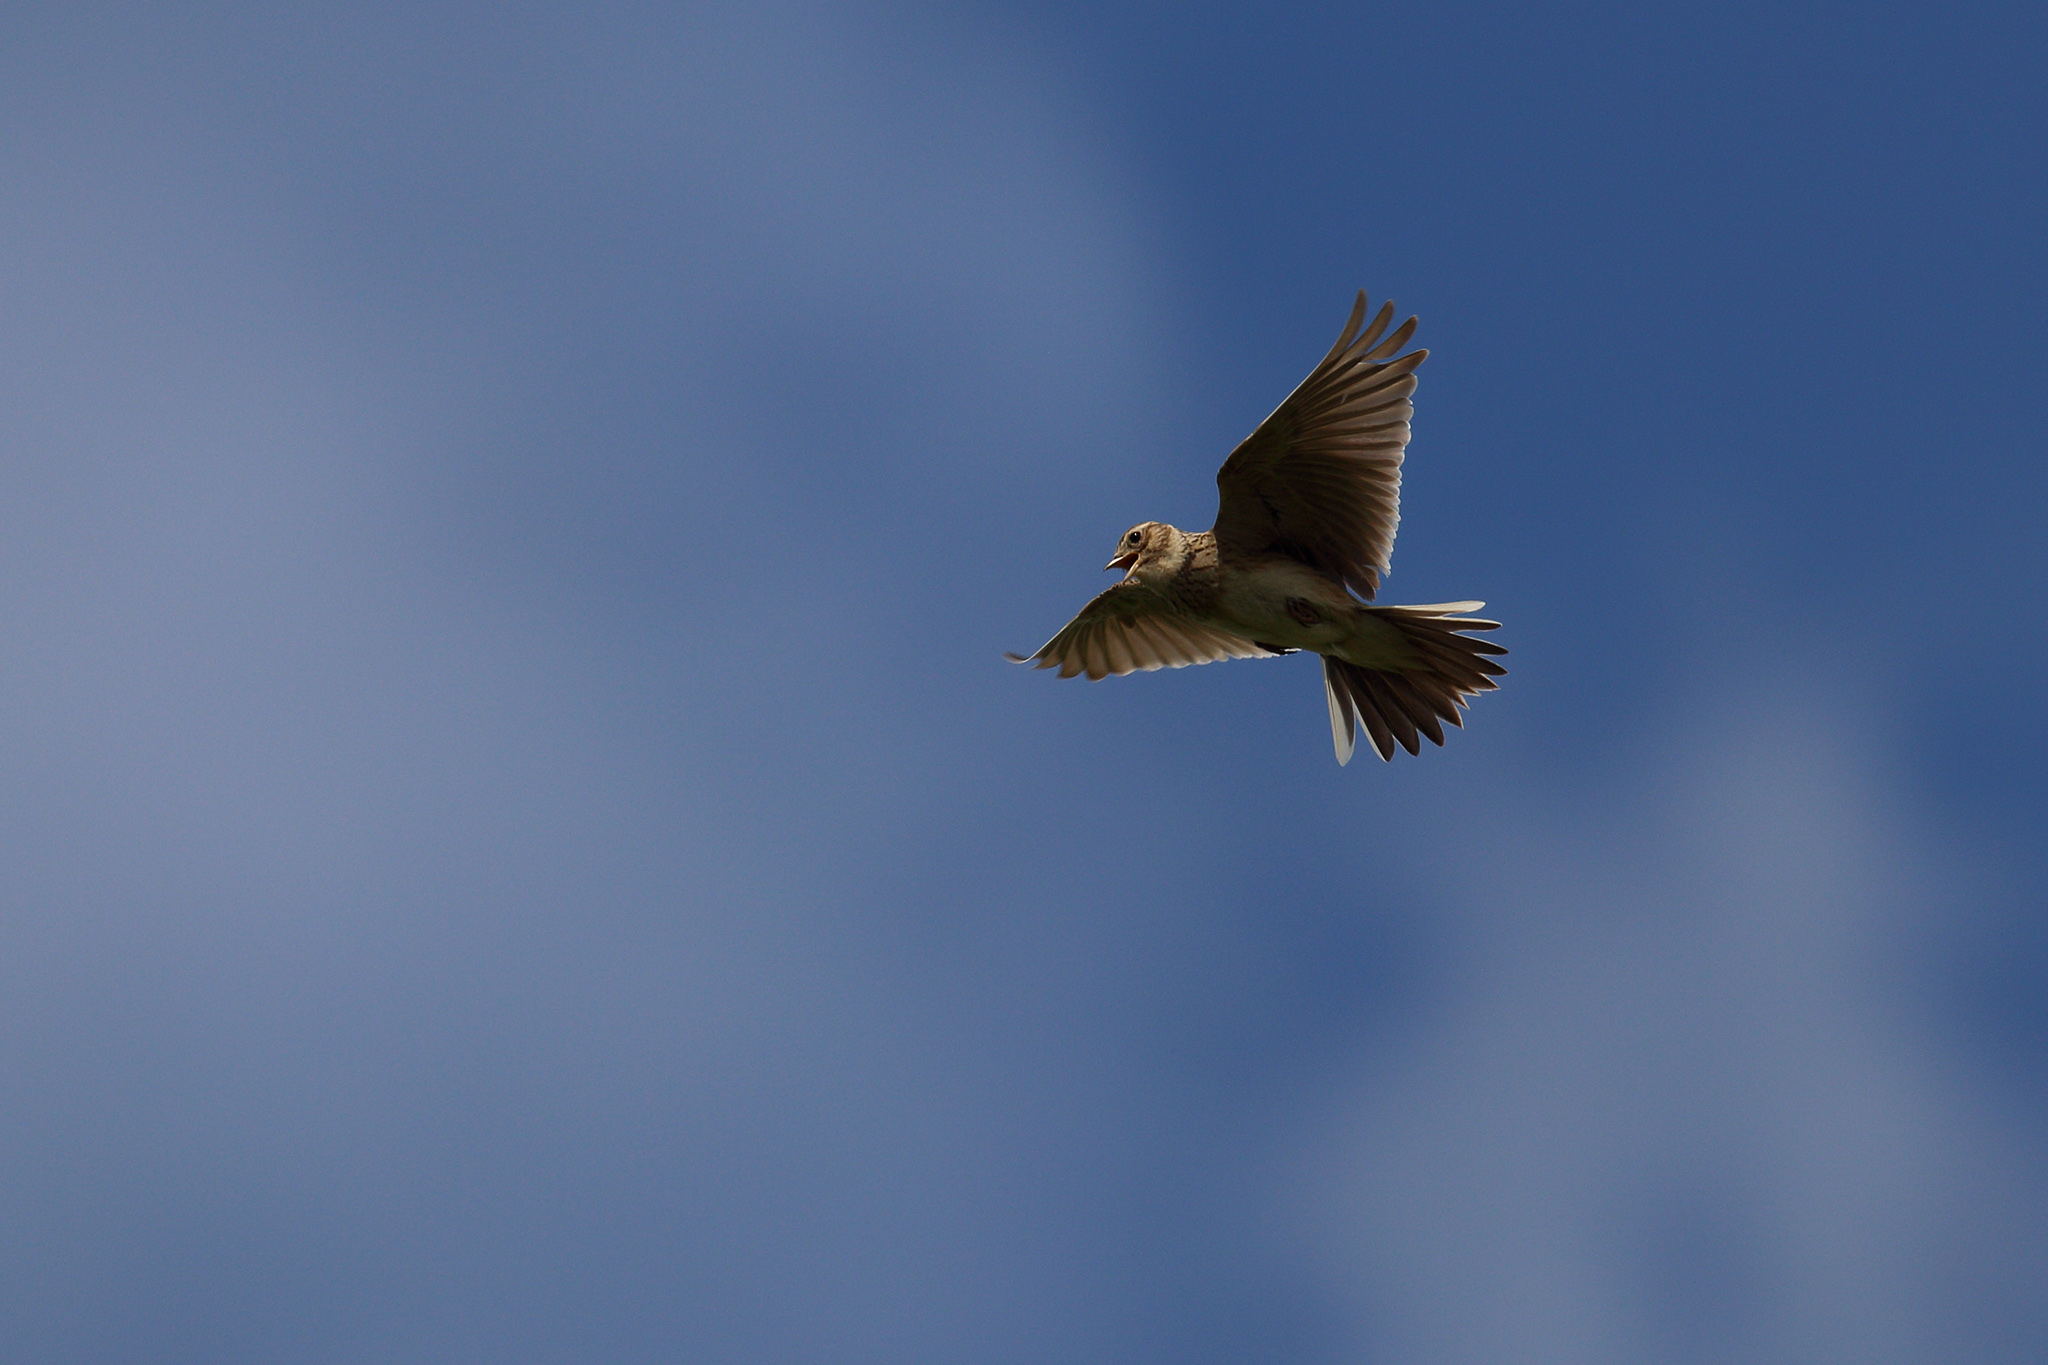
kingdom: Animalia
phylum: Chordata
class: Aves
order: Passeriformes
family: Alaudidae
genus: Alauda
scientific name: Alauda arvensis
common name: Eurasian skylark
